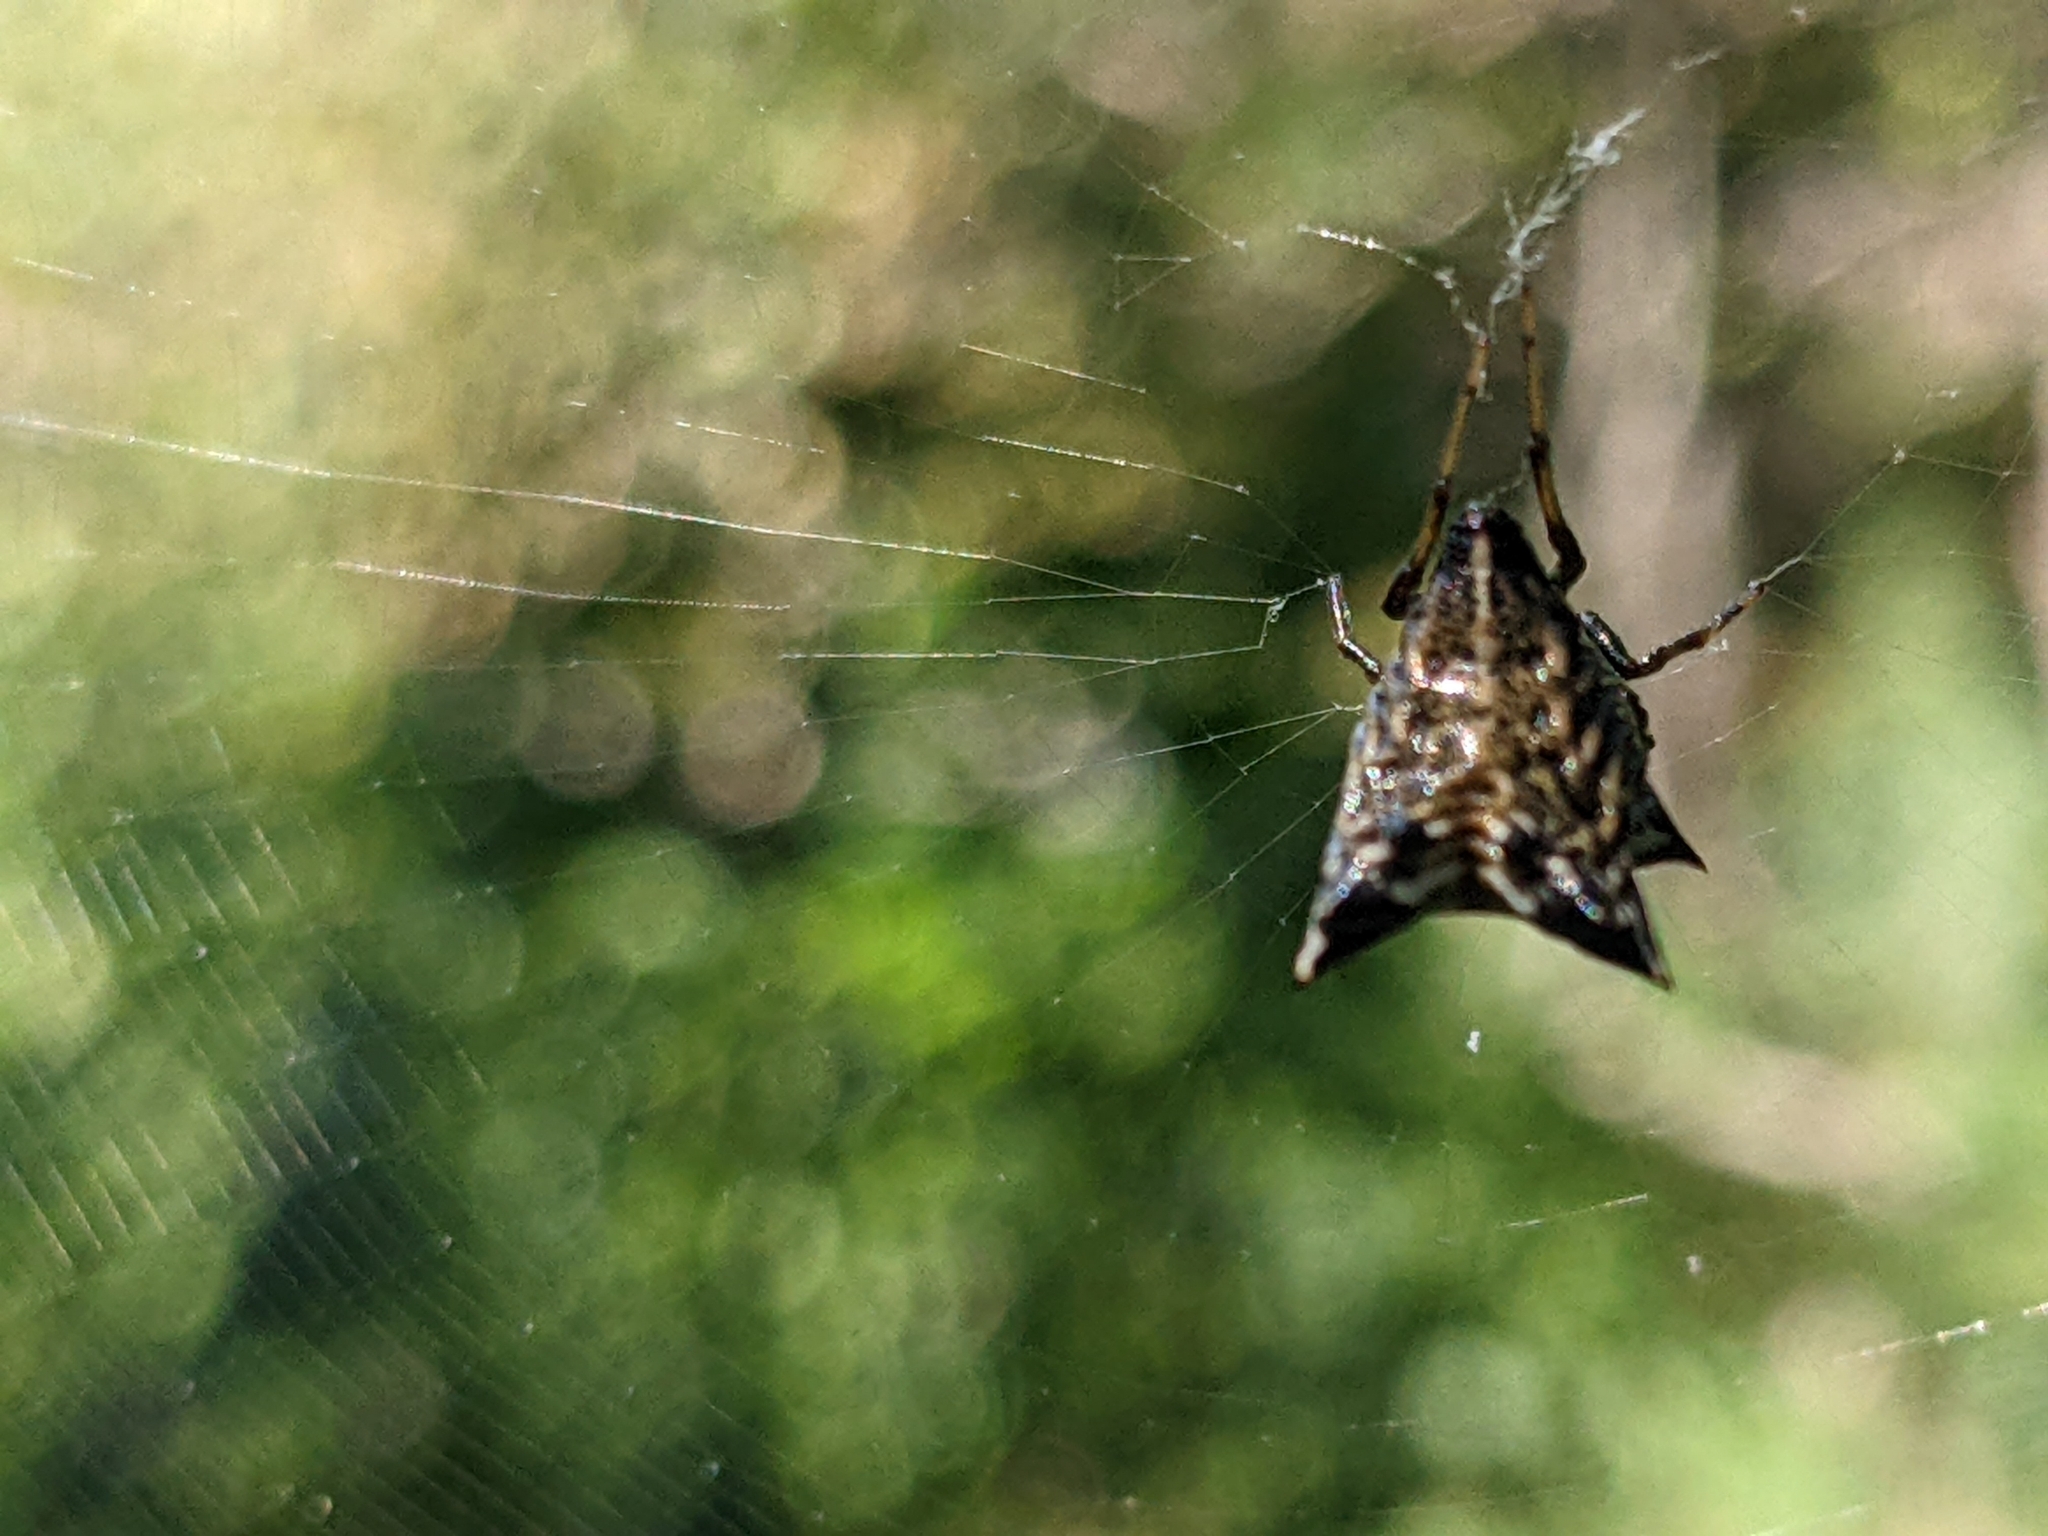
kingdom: Animalia
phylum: Arthropoda
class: Arachnida
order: Araneae
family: Araneidae
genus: Micrathena
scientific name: Micrathena gracilis
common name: Orb weavers
